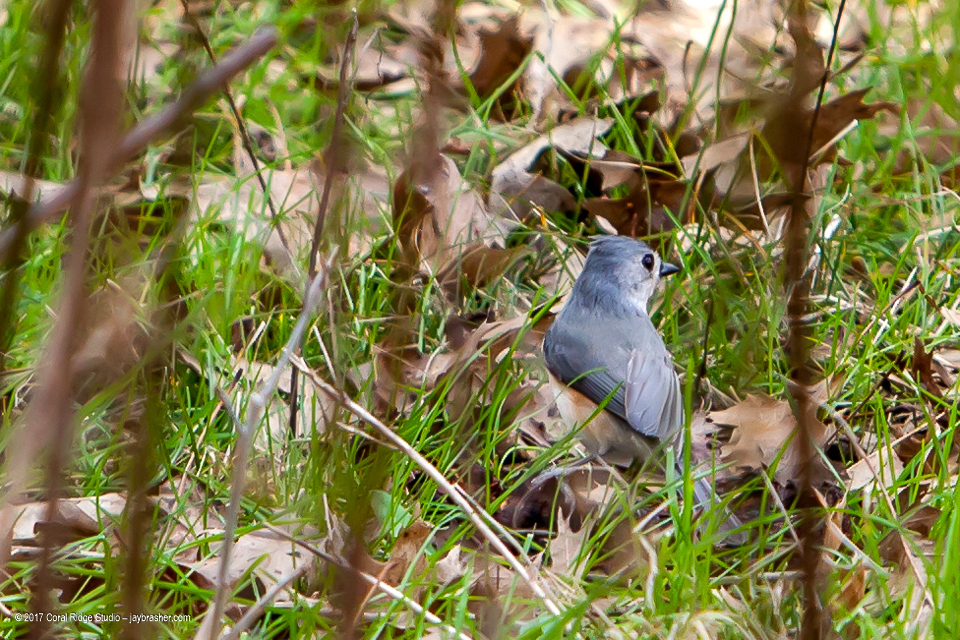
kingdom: Animalia
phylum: Chordata
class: Aves
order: Passeriformes
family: Paridae
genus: Baeolophus
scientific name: Baeolophus bicolor
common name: Tufted titmouse
